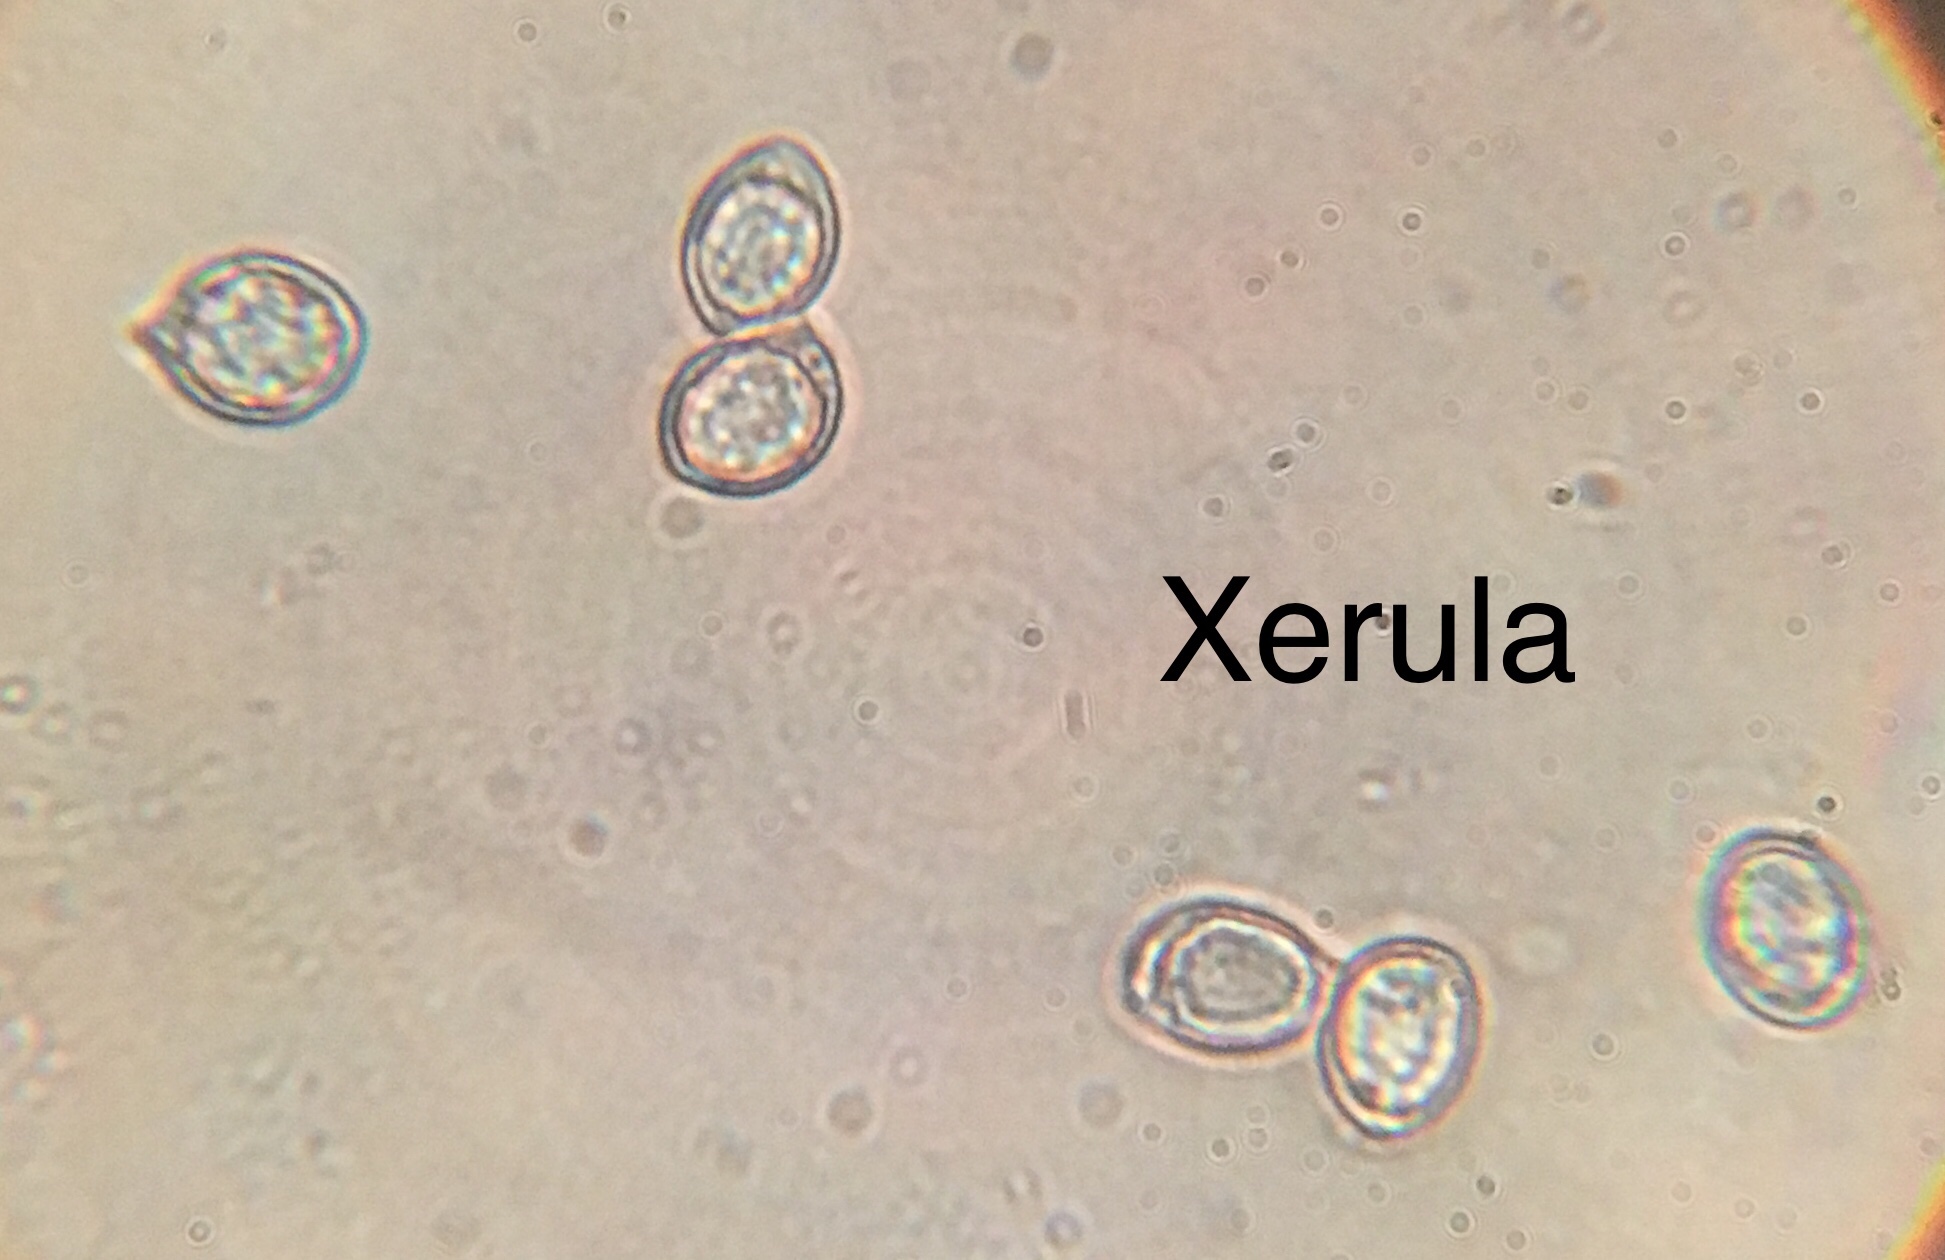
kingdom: Fungi
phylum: Basidiomycota
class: Agaricomycetes
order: Agaricales
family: Physalacriaceae
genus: Hymenopellis
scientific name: Hymenopellis furfuracea
